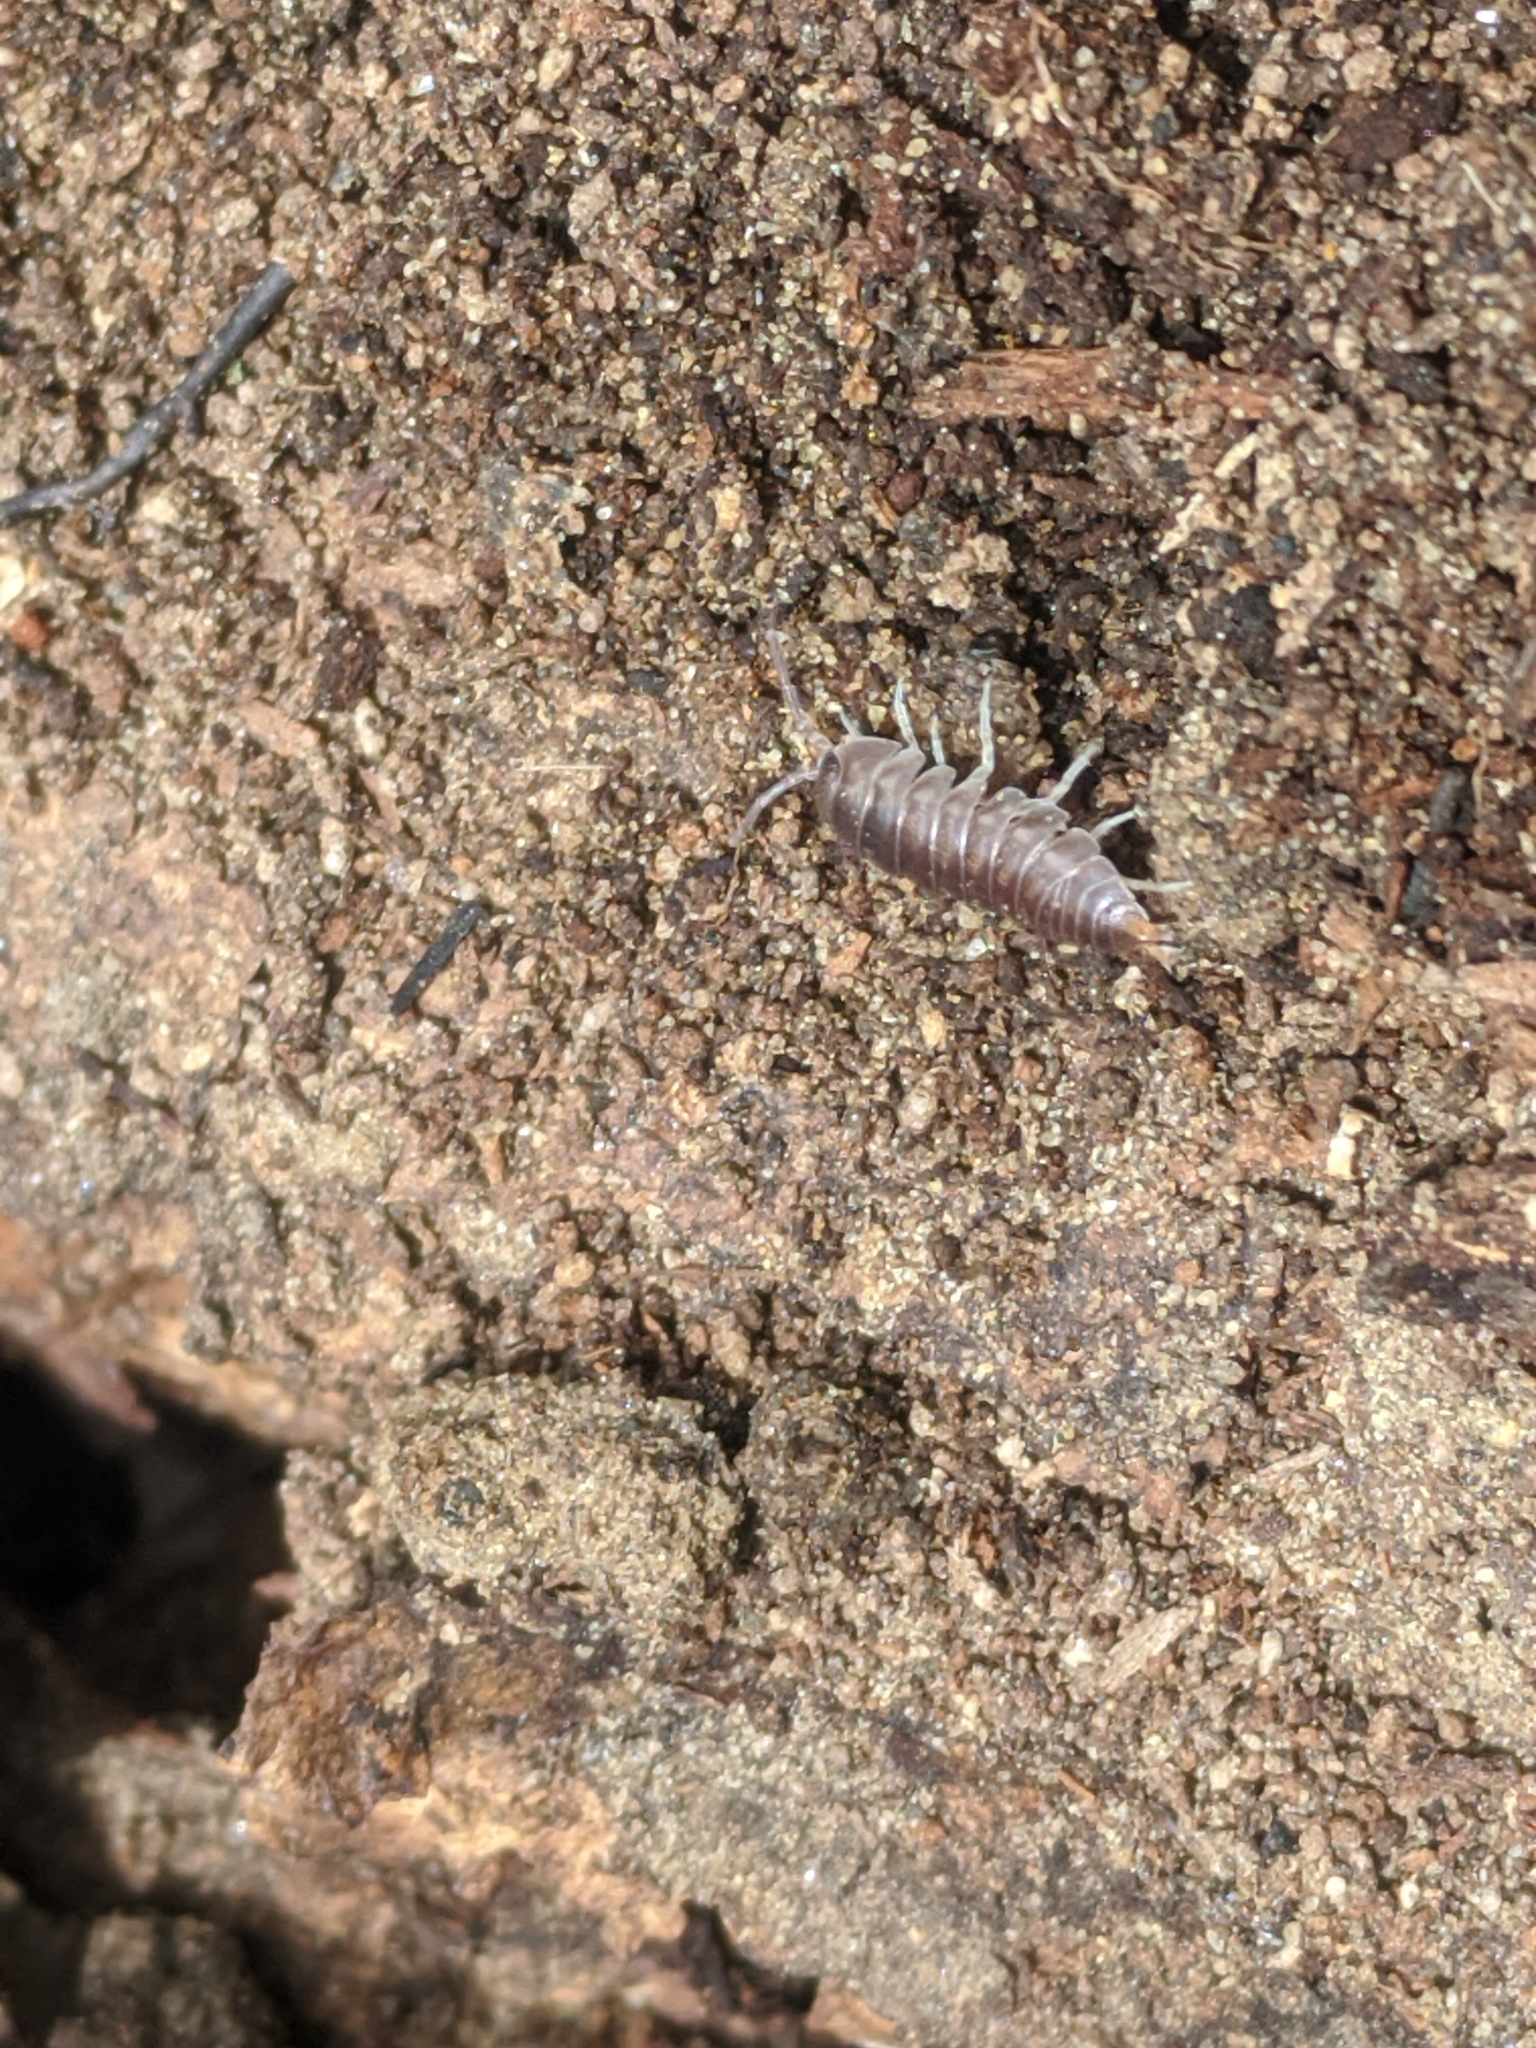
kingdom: Animalia
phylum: Arthropoda
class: Malacostraca
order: Isopoda
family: Cylisticidae
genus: Cylisticus
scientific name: Cylisticus convexus
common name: Curly woodlouse
